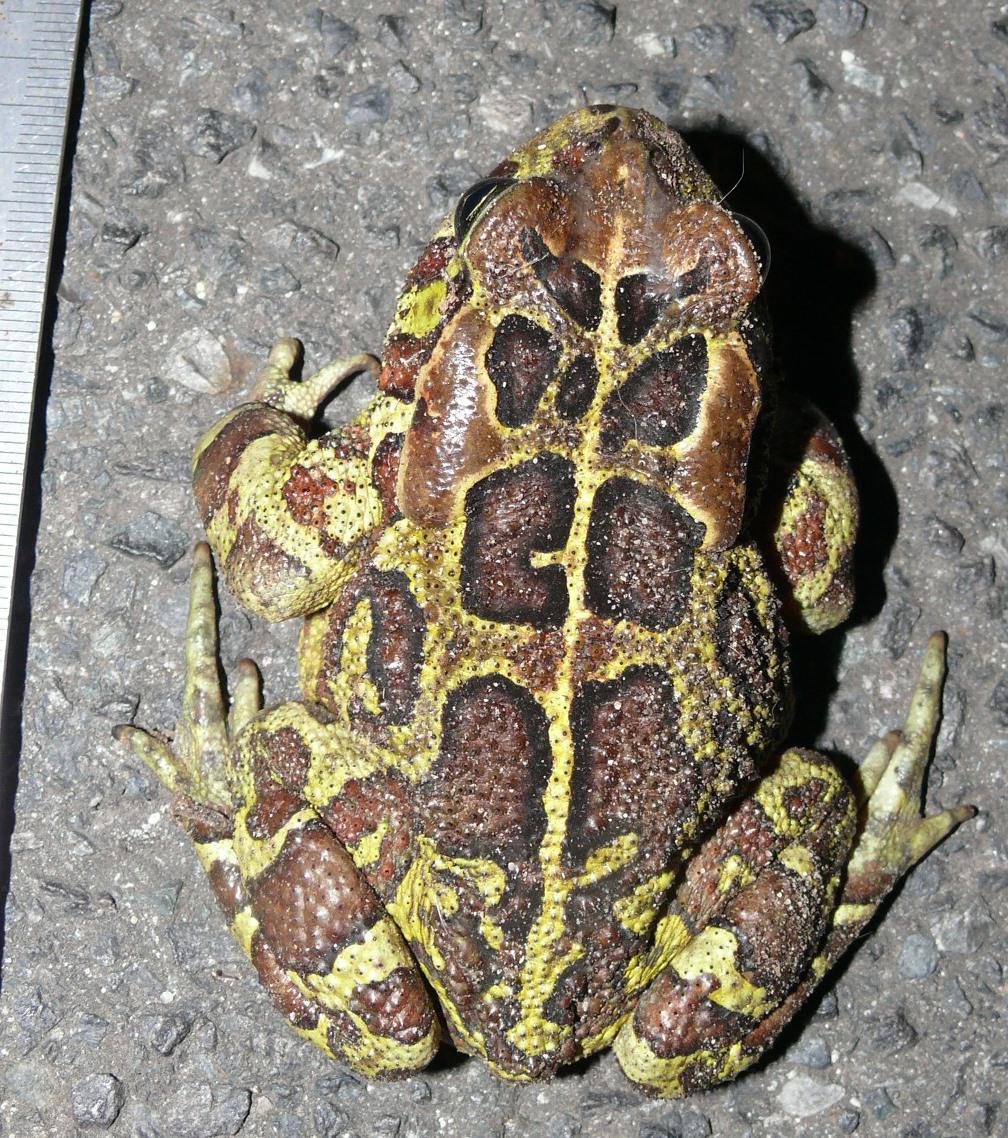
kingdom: Animalia
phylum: Chordata
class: Amphibia
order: Anura
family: Bufonidae
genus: Sclerophrys
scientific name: Sclerophrys pantherina
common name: Panther toad
